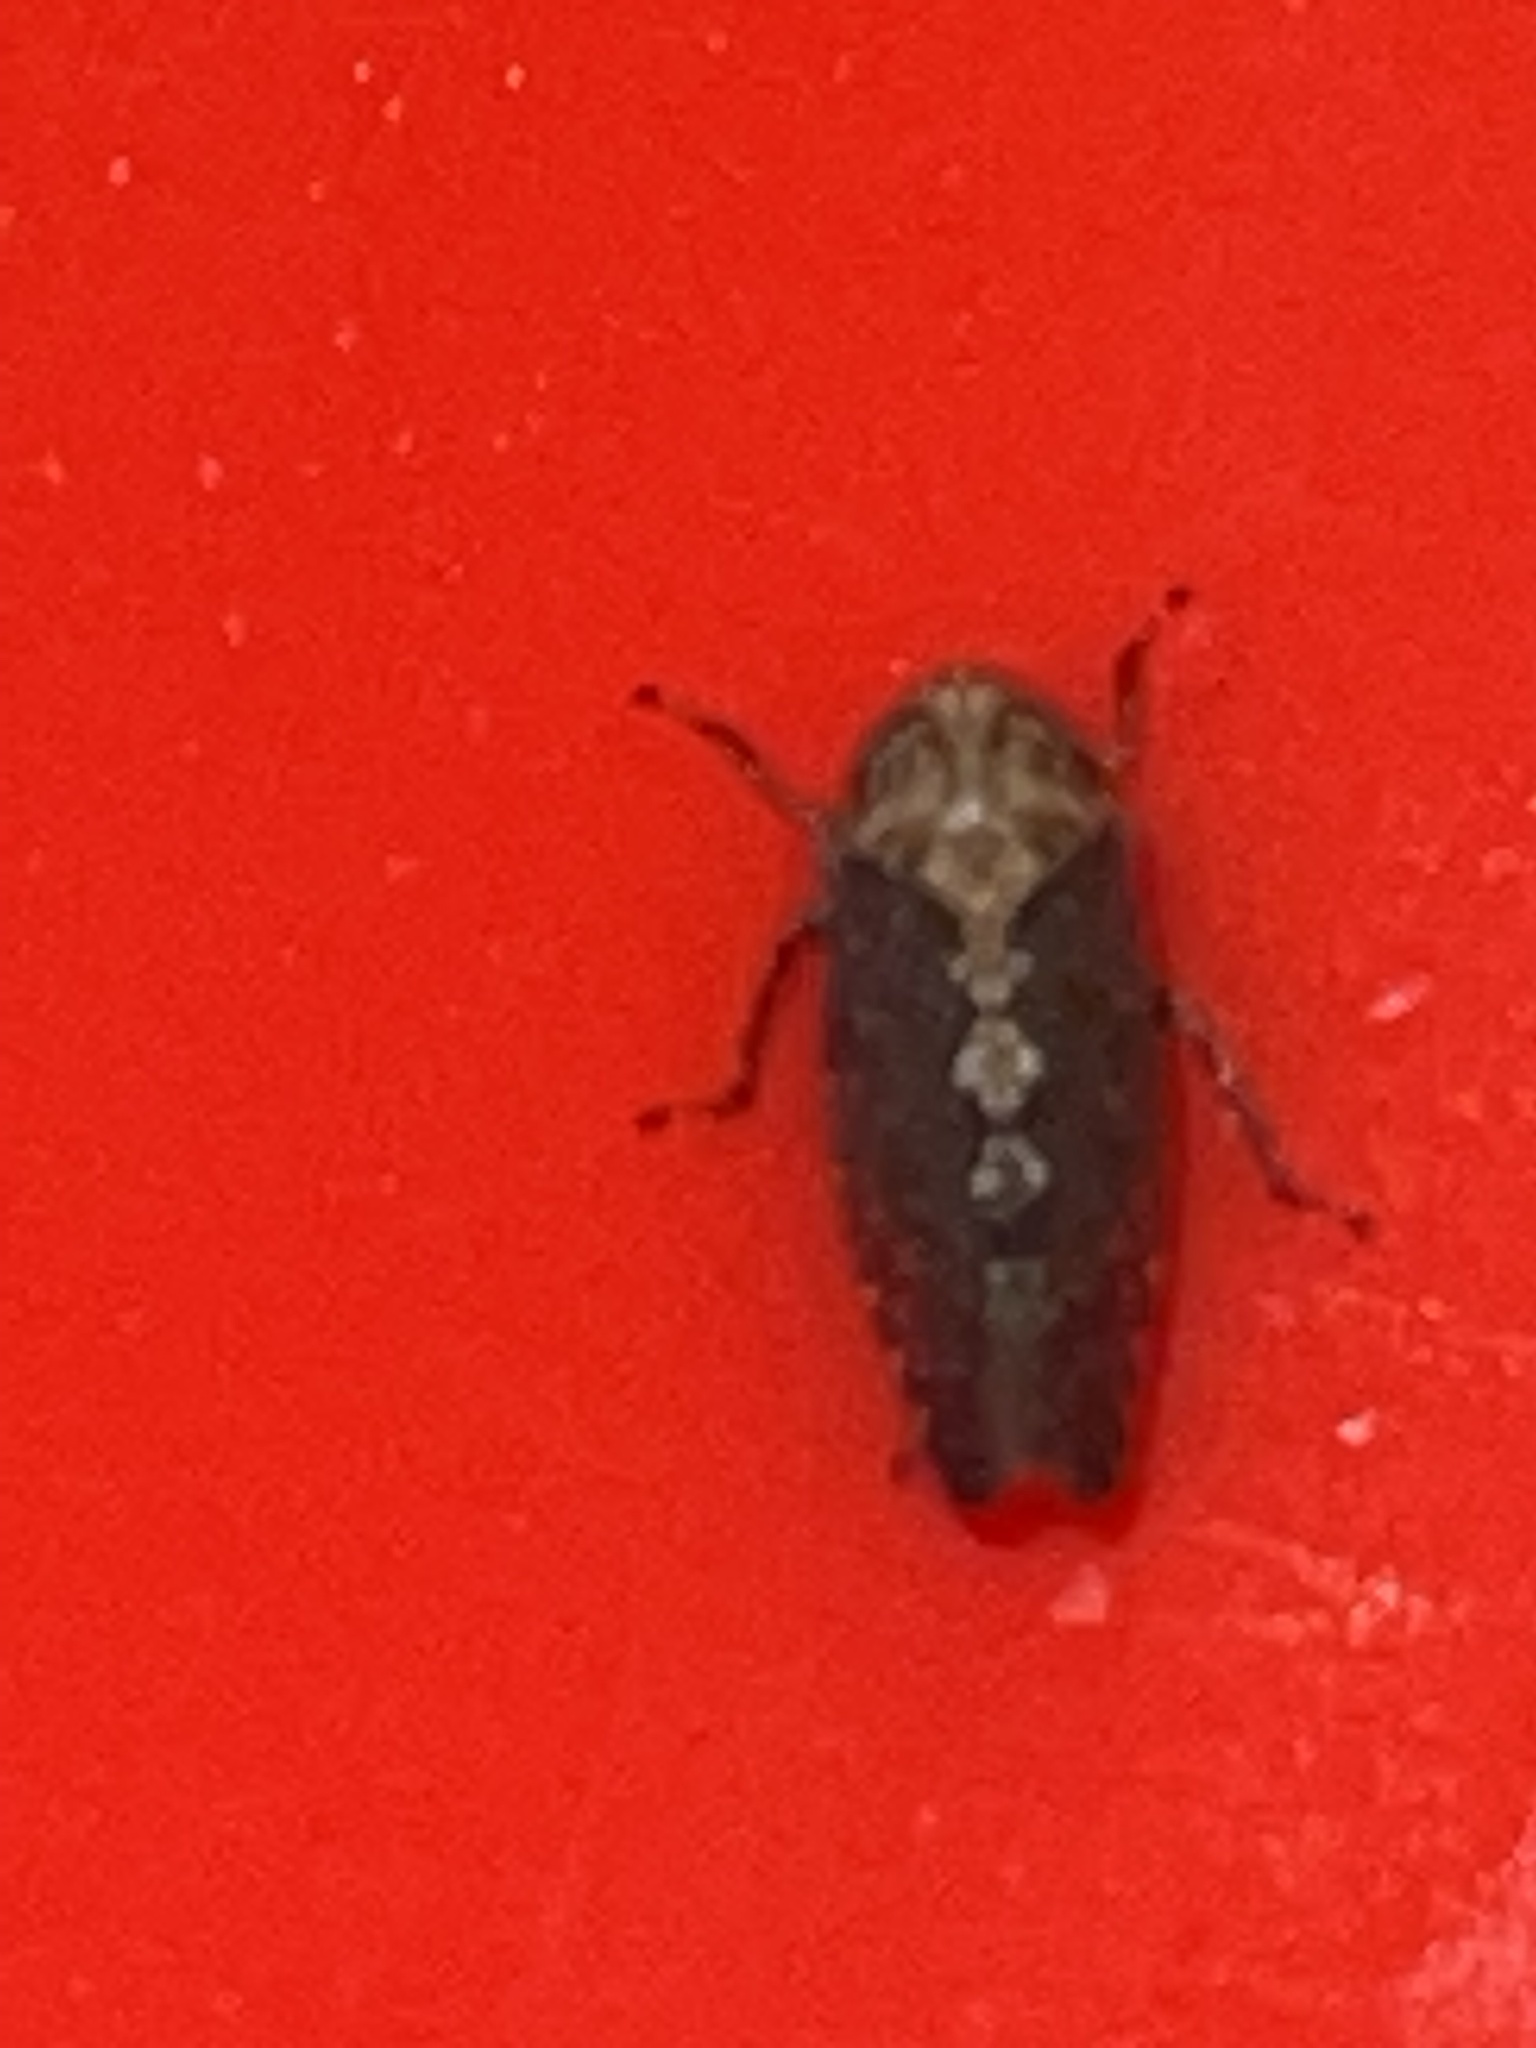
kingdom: Animalia
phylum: Arthropoda
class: Insecta
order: Hemiptera
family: Cicadellidae
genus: Excultanus
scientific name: Excultanus excultus
